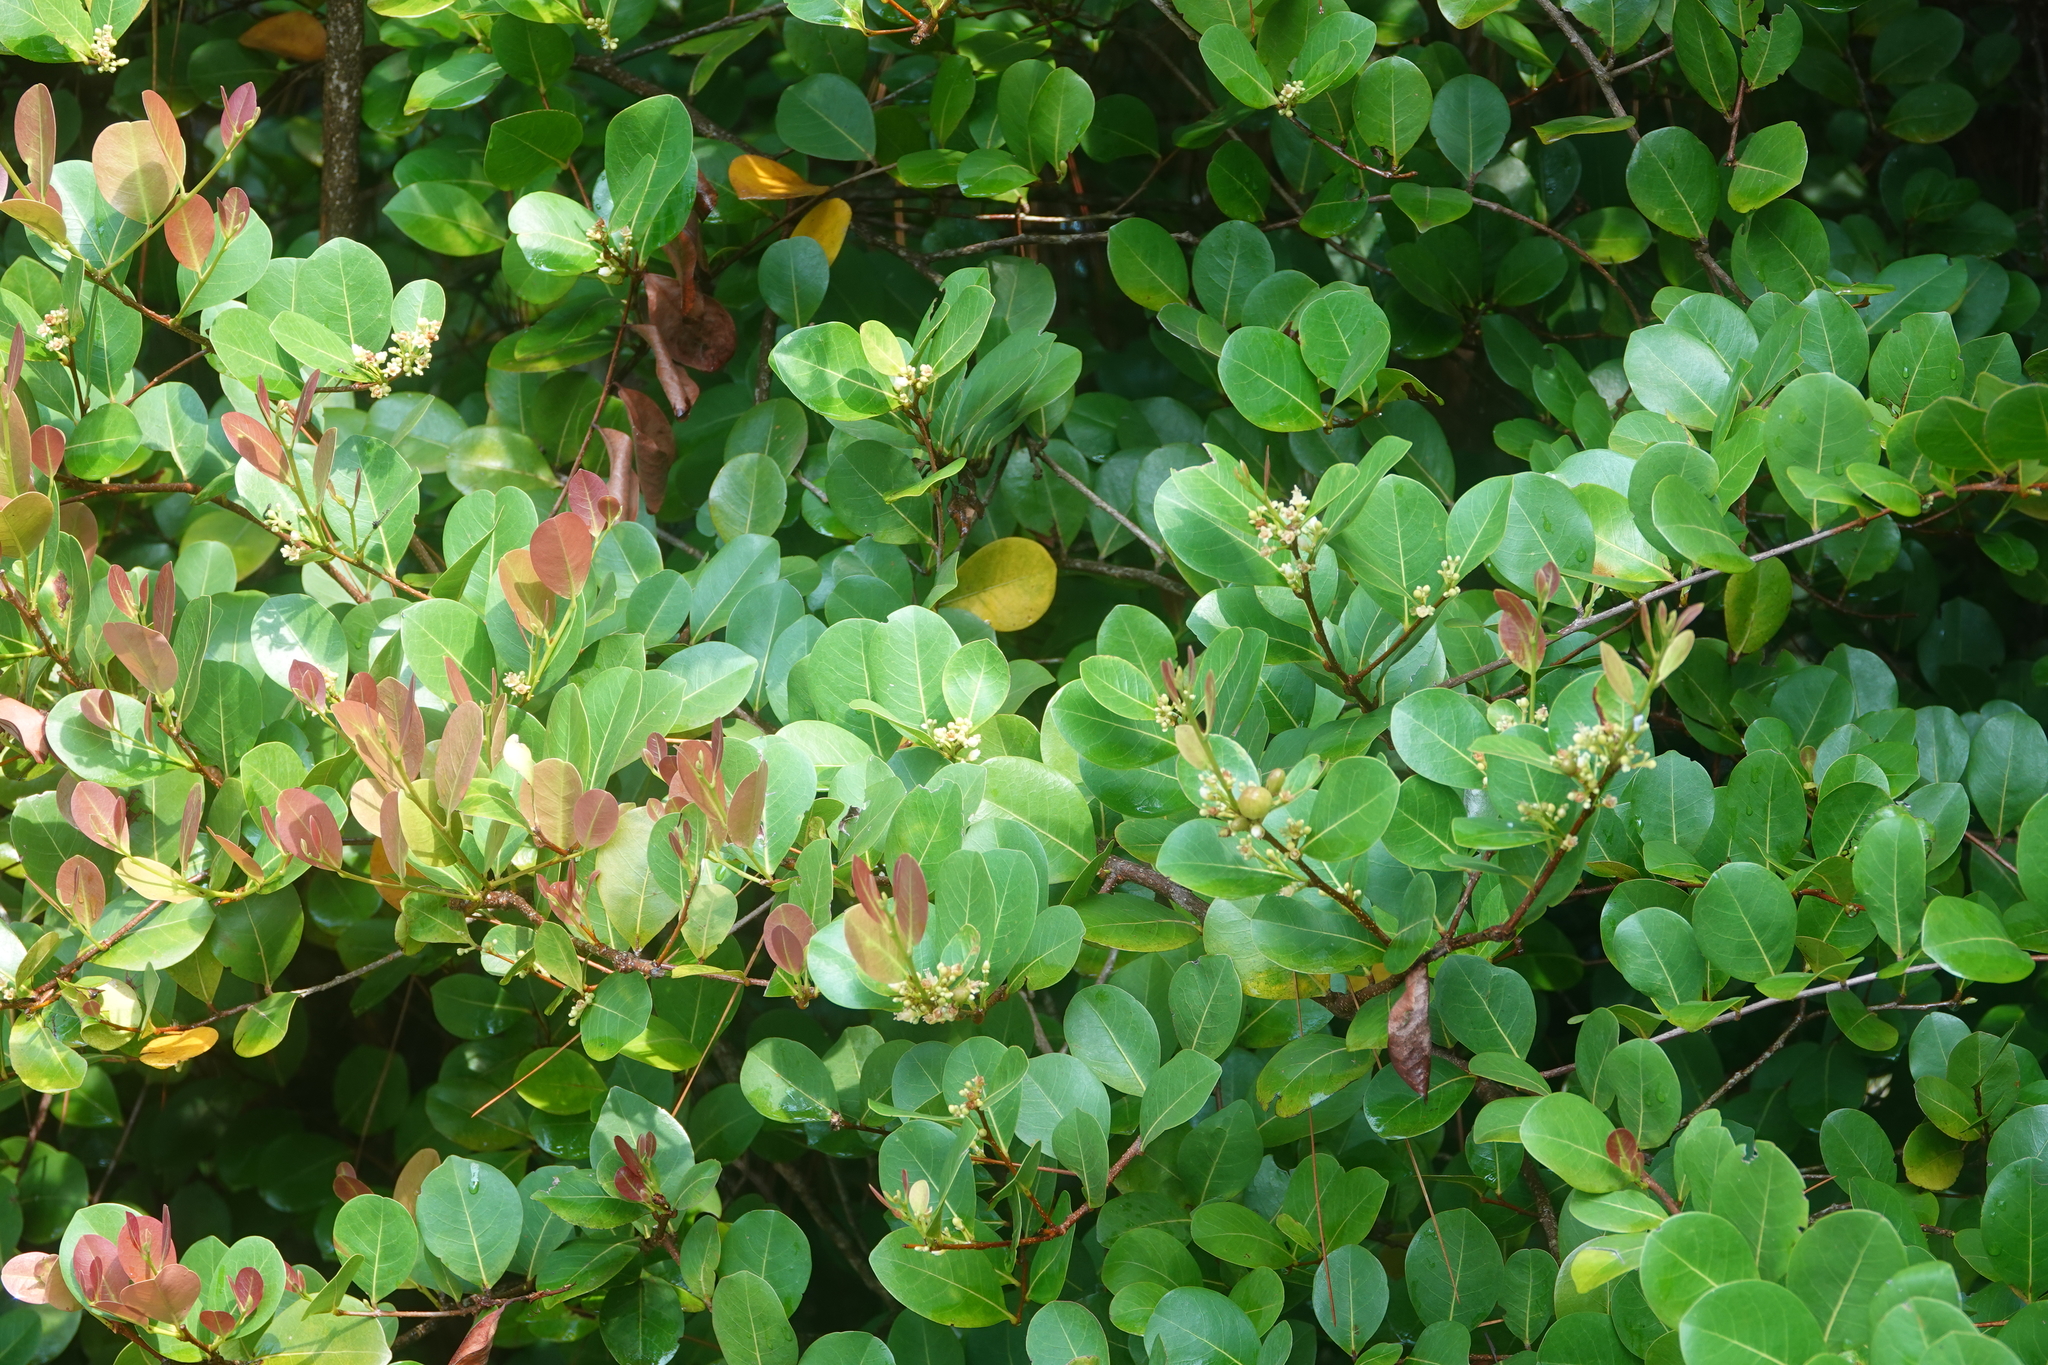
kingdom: Plantae
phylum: Tracheophyta
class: Magnoliopsida
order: Malpighiales
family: Chrysobalanaceae
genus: Chrysobalanus
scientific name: Chrysobalanus icaco
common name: Coco plum
